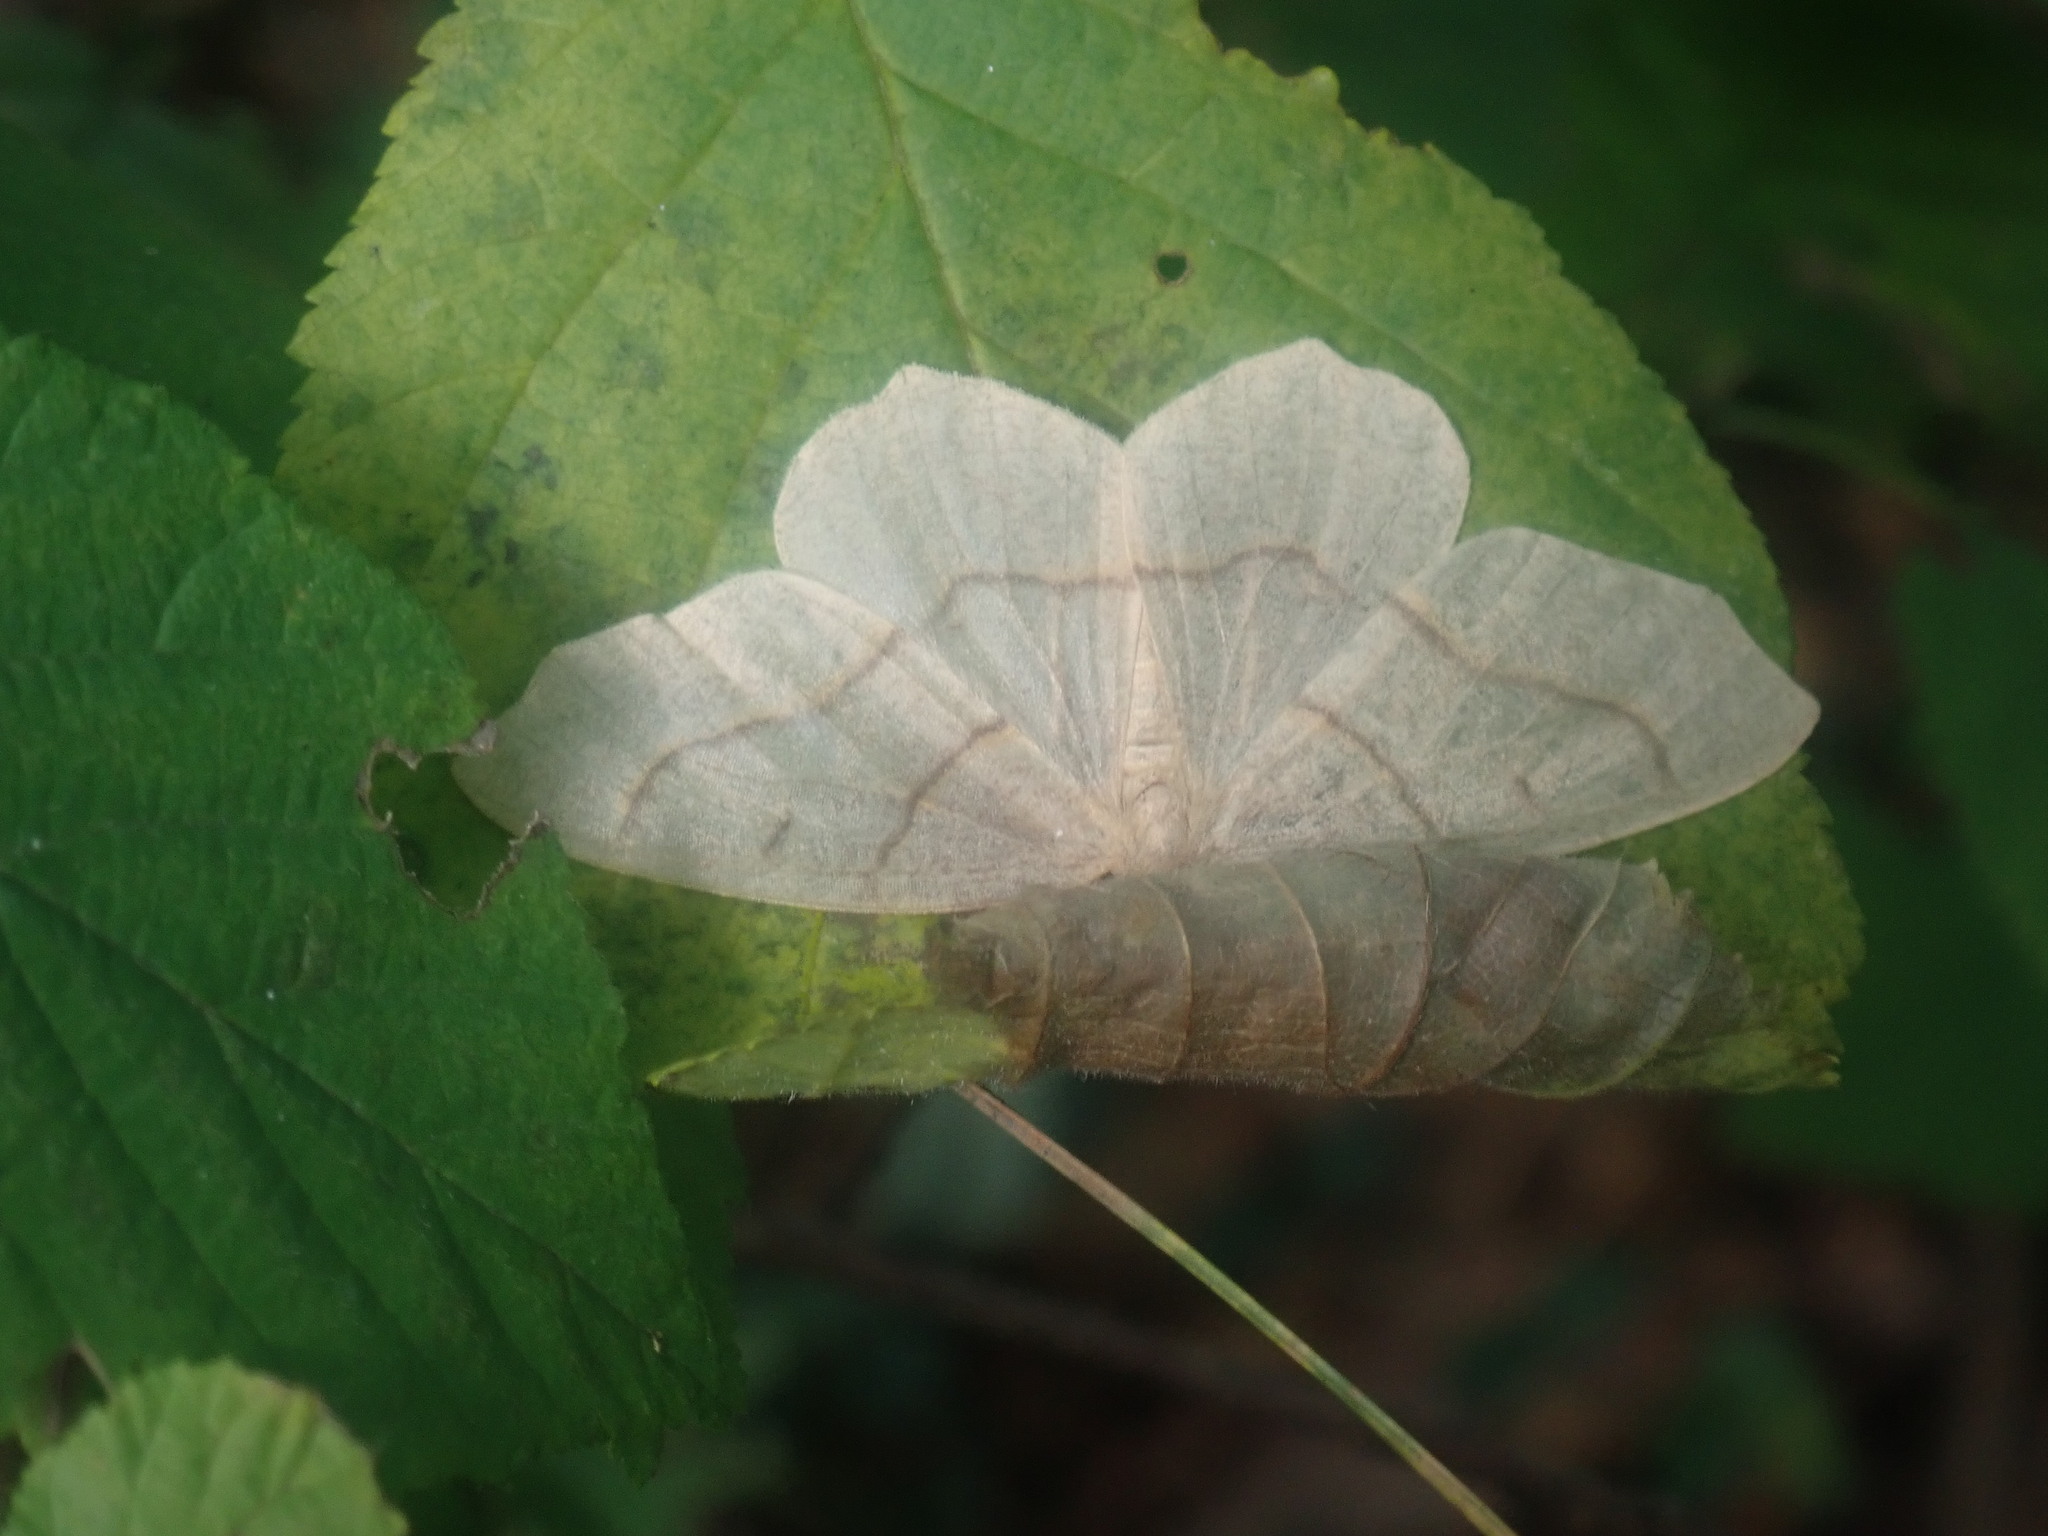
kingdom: Animalia
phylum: Arthropoda
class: Insecta
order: Lepidoptera
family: Geometridae
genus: Lambdina
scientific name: Lambdina fiscellaria
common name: Hemlock looper
